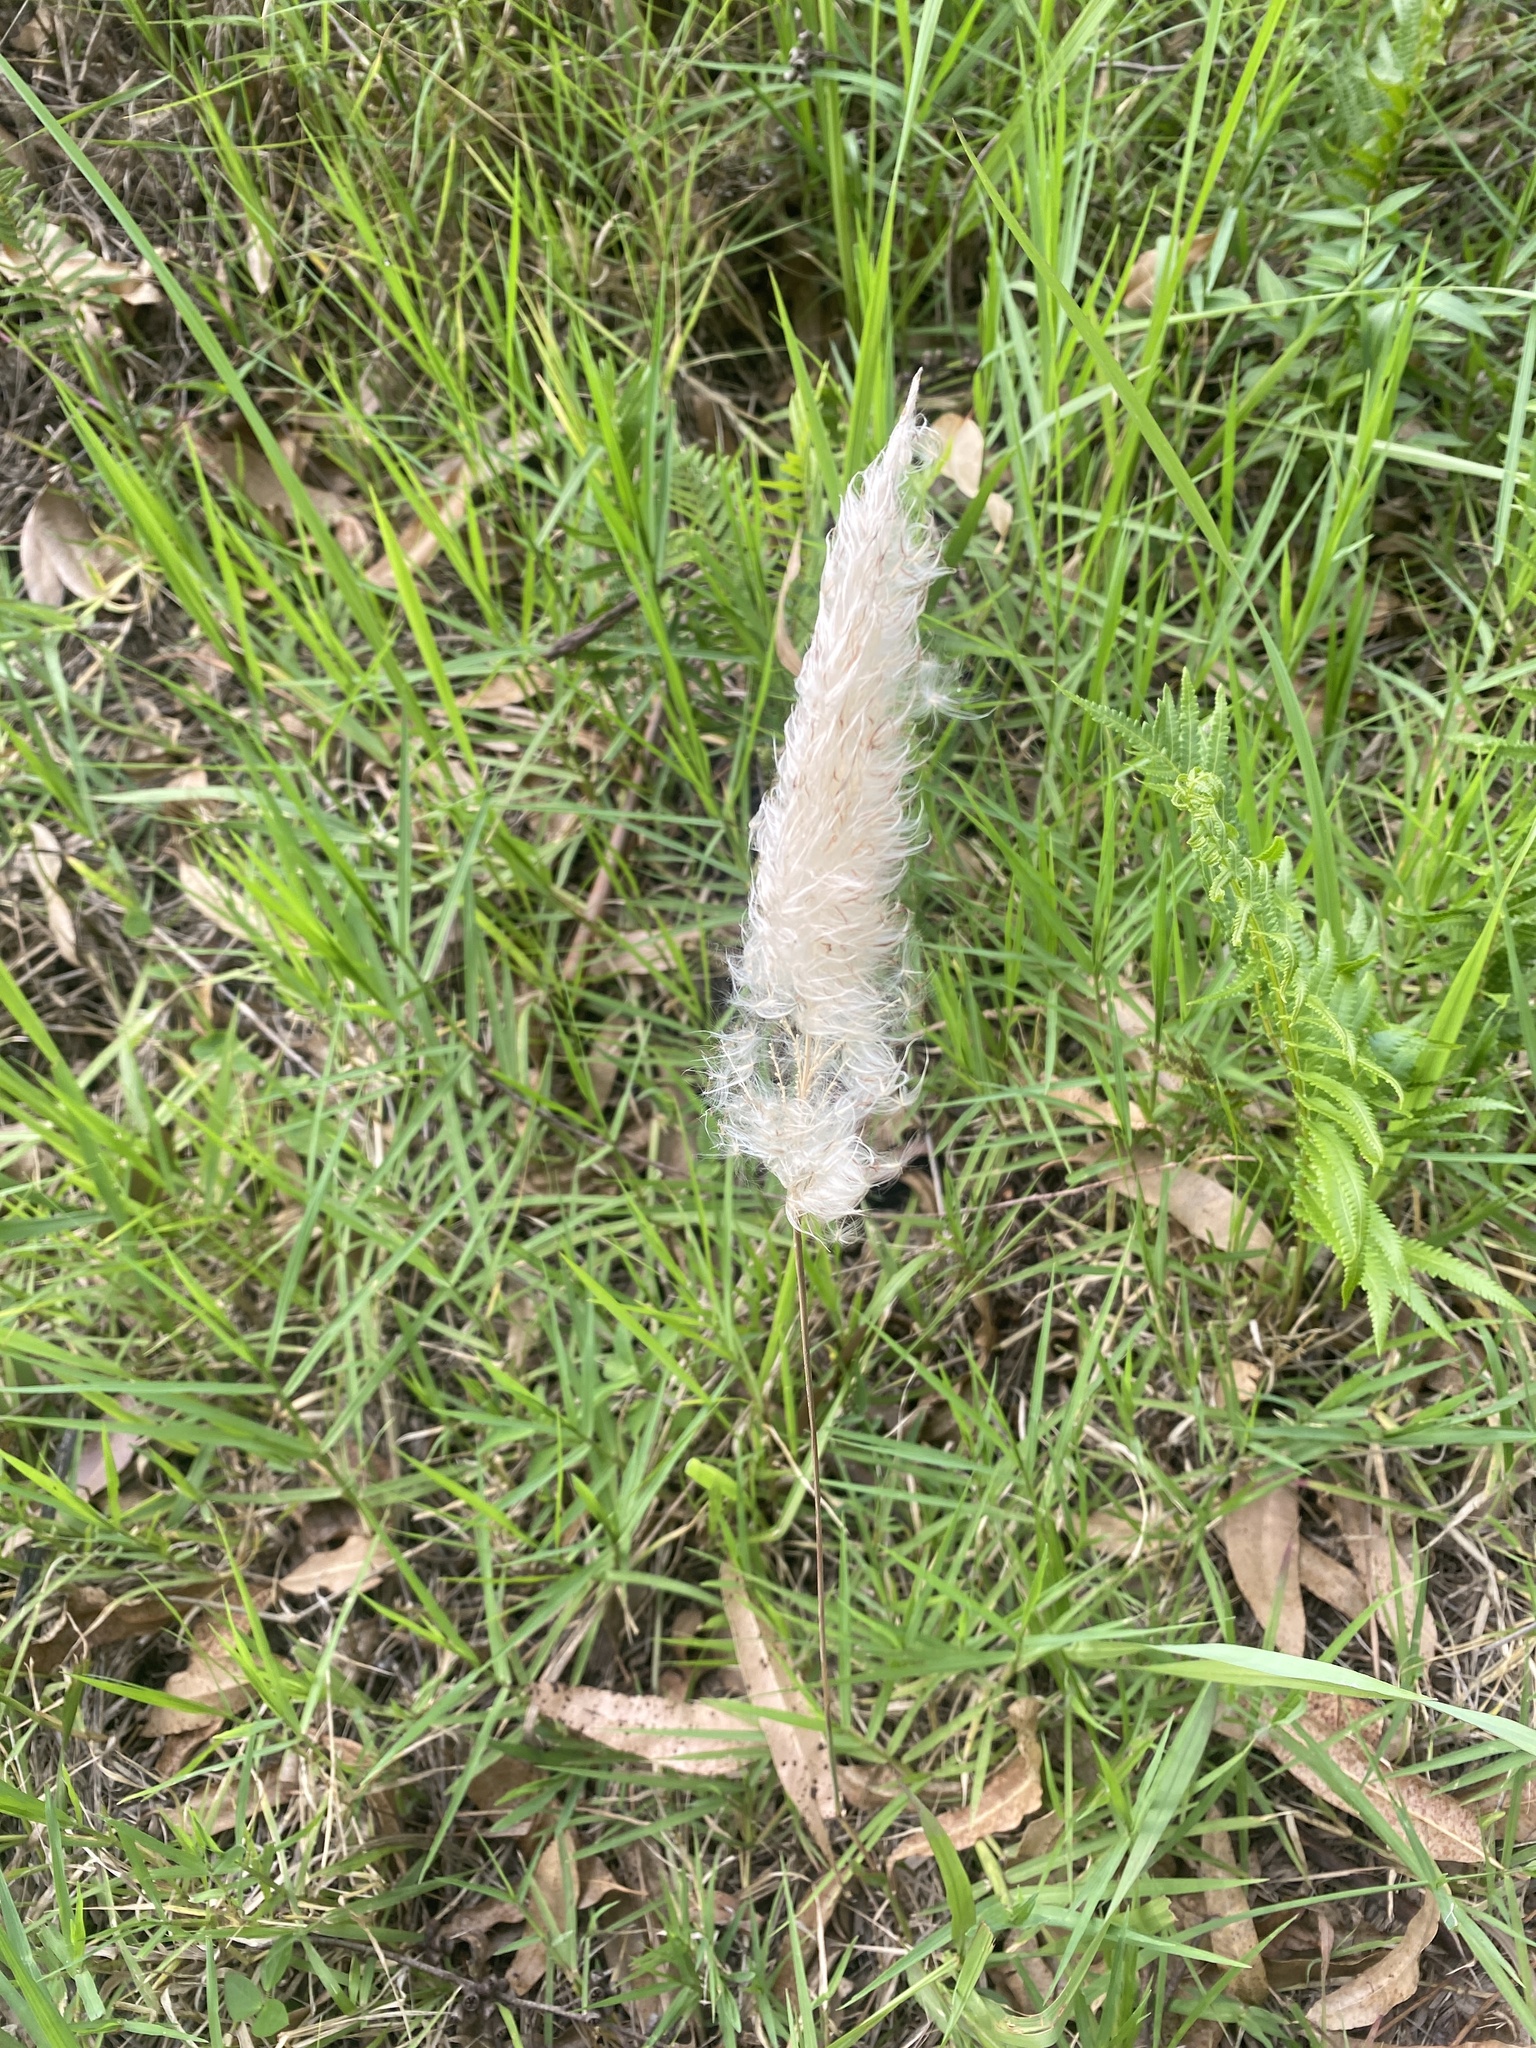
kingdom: Plantae
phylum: Tracheophyta
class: Liliopsida
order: Poales
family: Poaceae
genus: Imperata
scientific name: Imperata cylindrica
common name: Cogongrass
